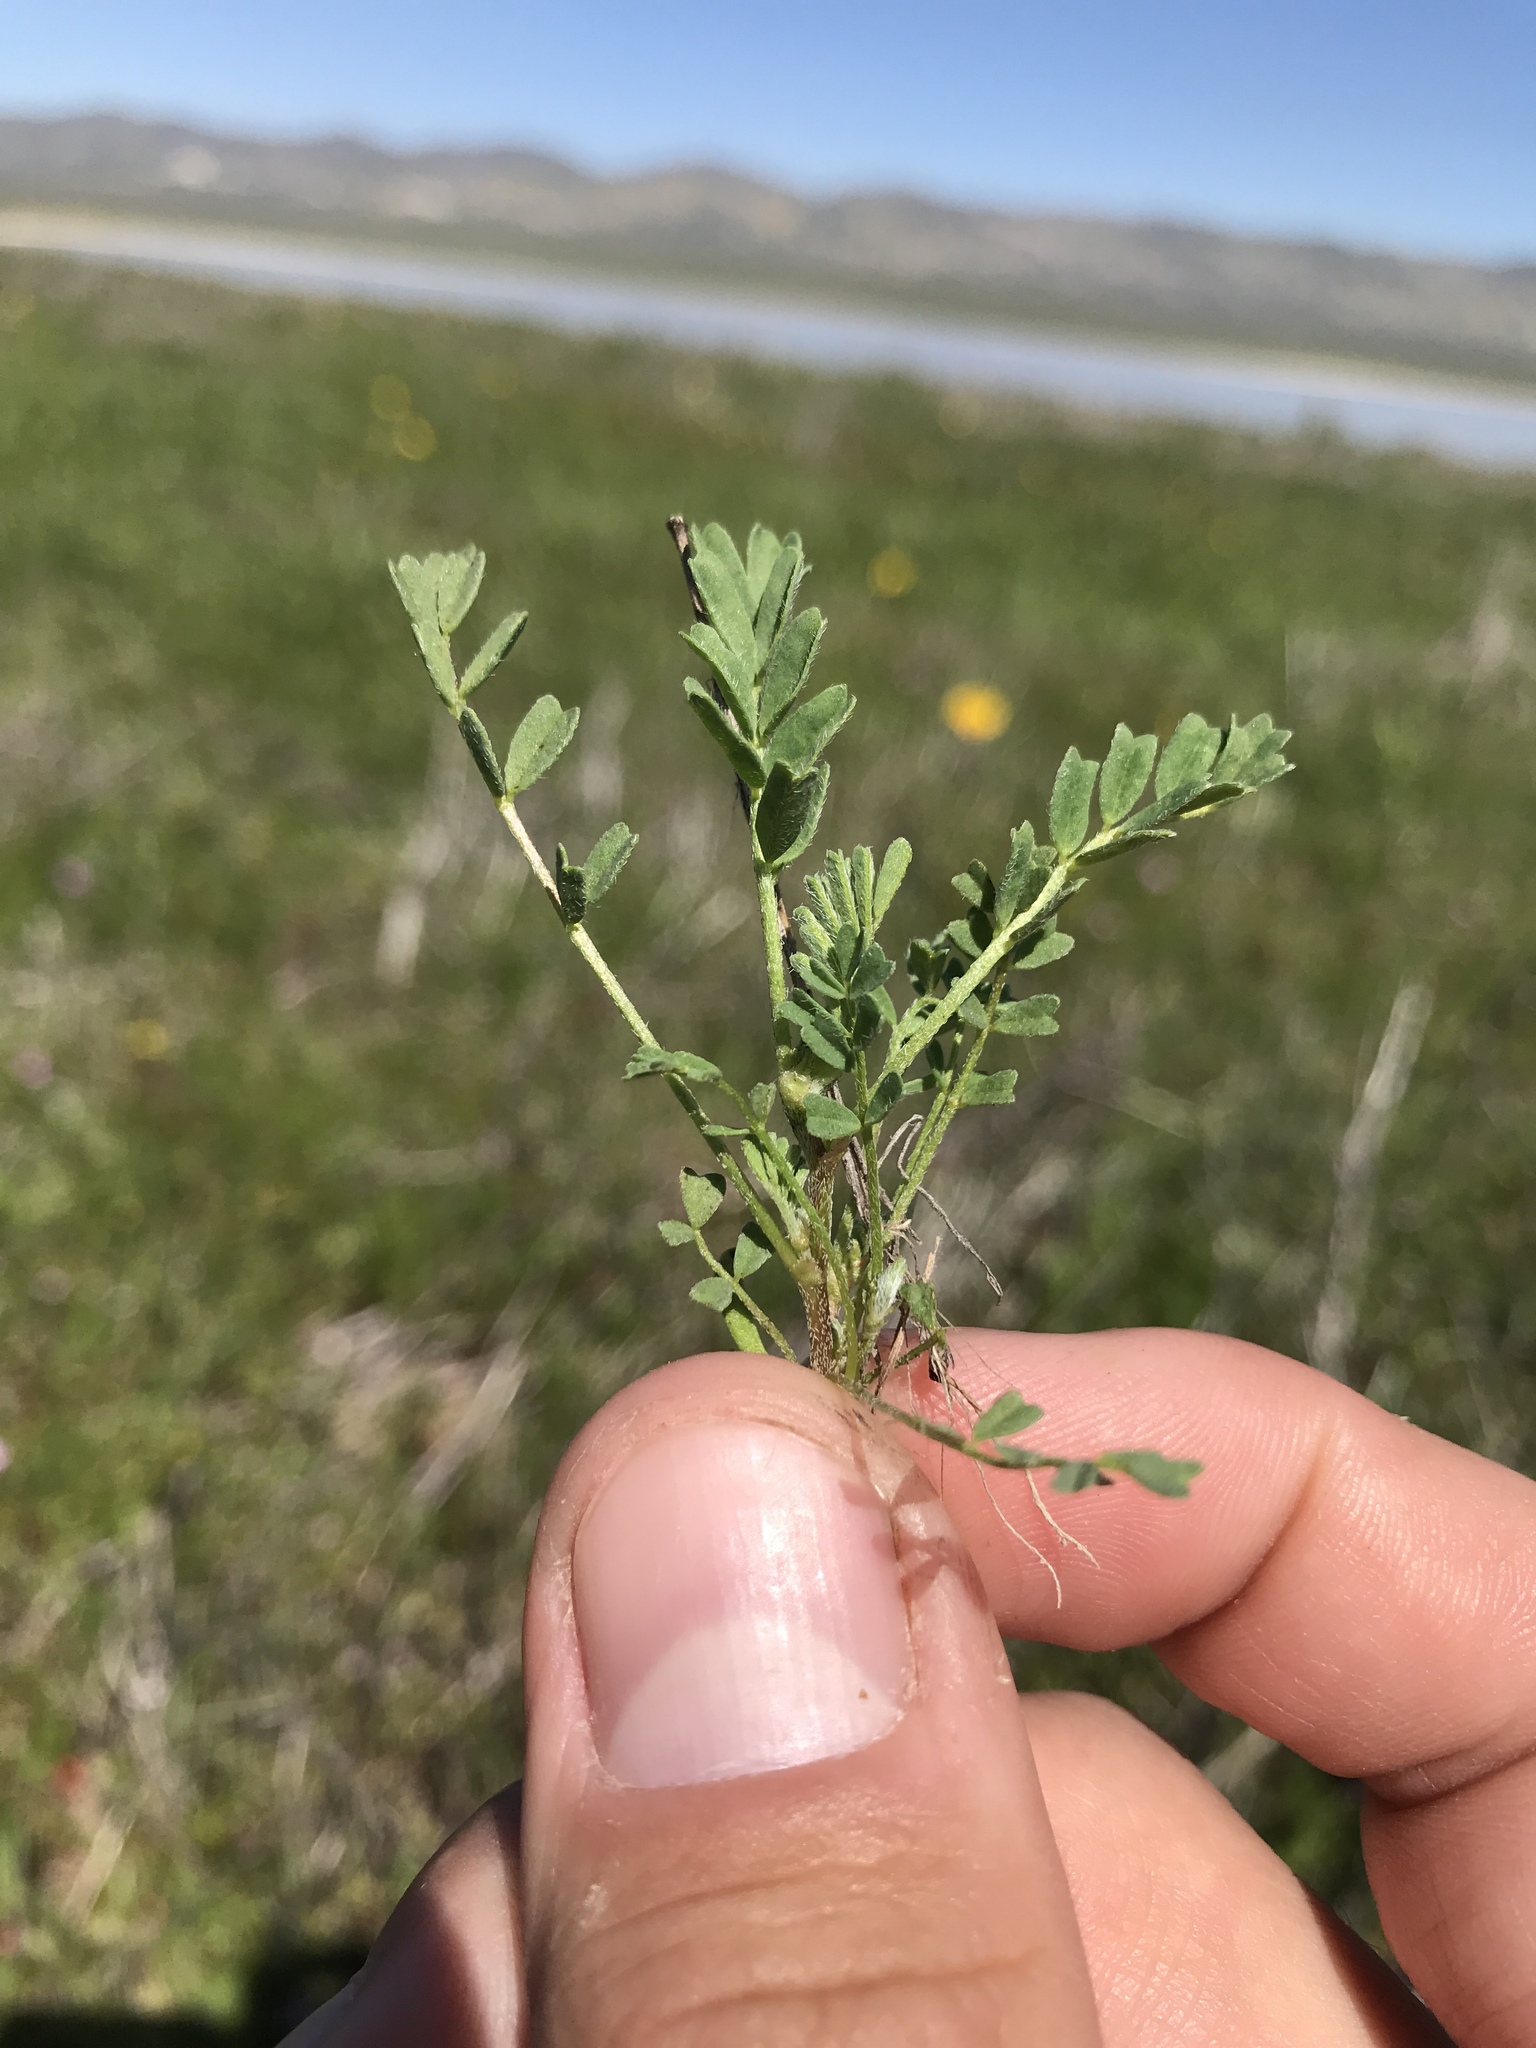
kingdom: Plantae
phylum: Tracheophyta
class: Magnoliopsida
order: Fabales
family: Fabaceae
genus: Astragalus
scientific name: Astragalus didymocarpus
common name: Dwarf white milkvetch
